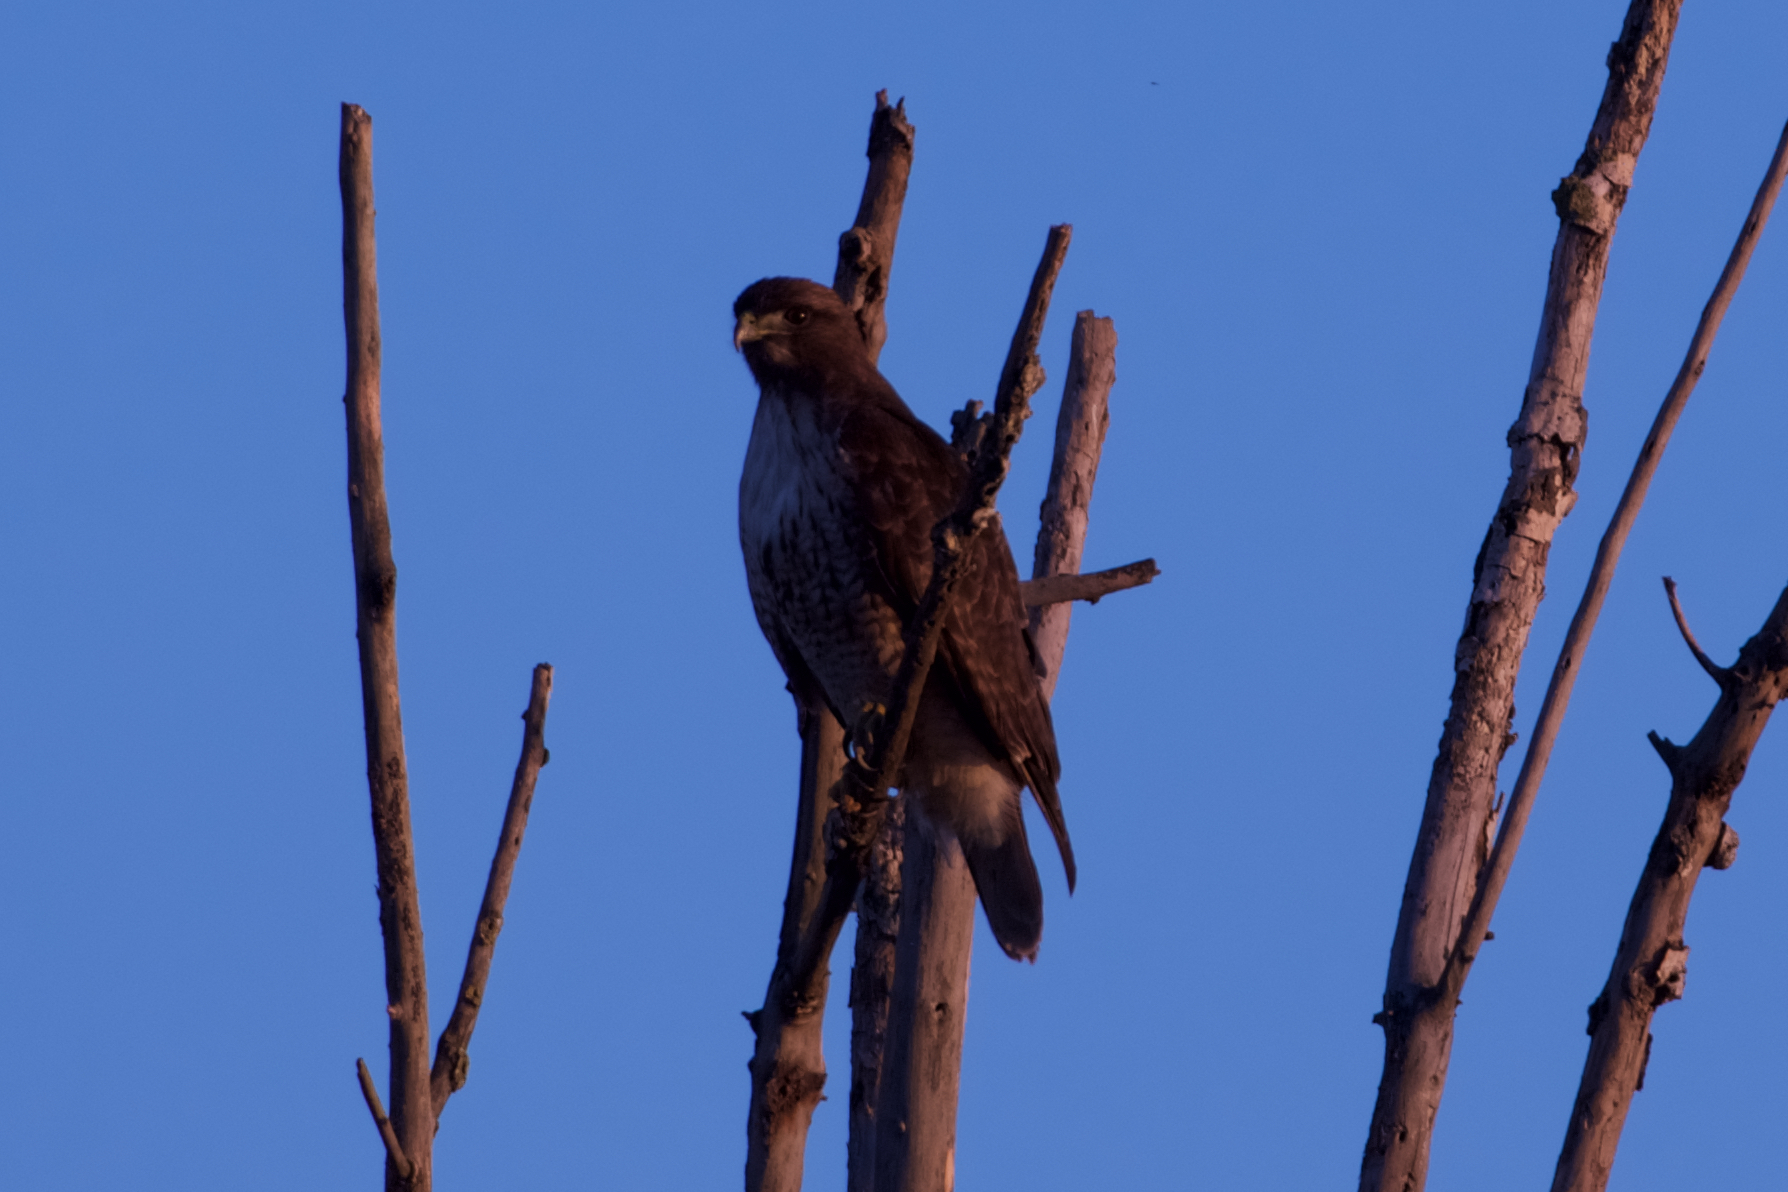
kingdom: Animalia
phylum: Chordata
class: Aves
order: Accipitriformes
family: Accipitridae
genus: Buteo
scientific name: Buteo jamaicensis
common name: Red-tailed hawk
